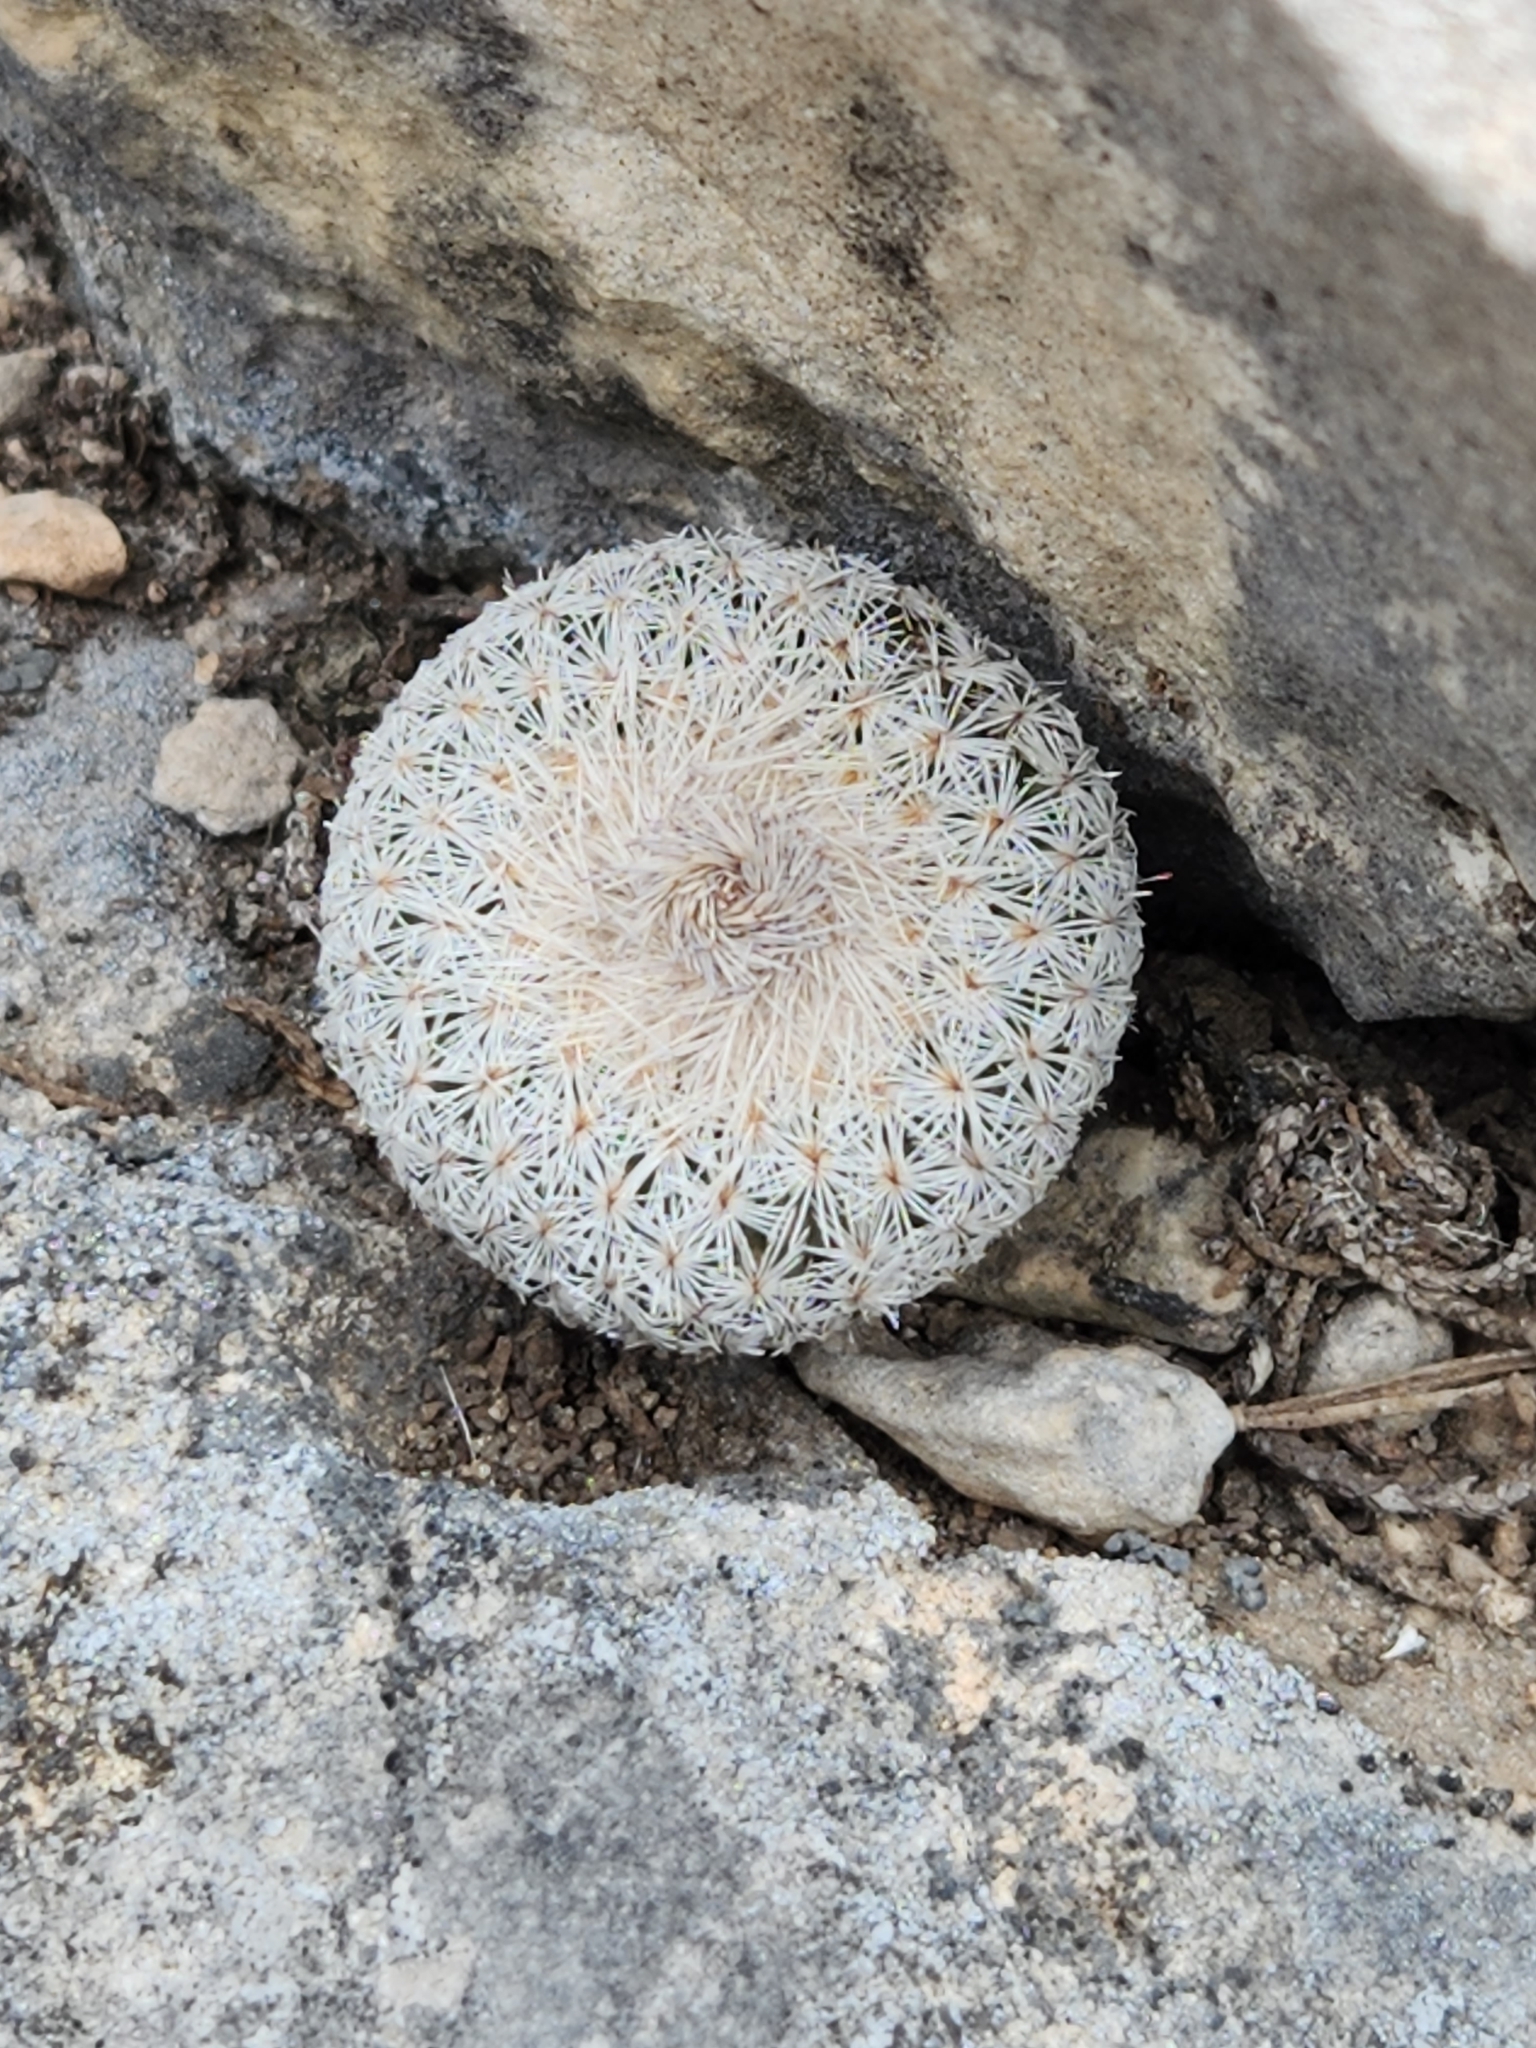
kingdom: Plantae
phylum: Tracheophyta
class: Magnoliopsida
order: Caryophyllales
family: Cactaceae
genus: Epithelantha
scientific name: Epithelantha micromeris
